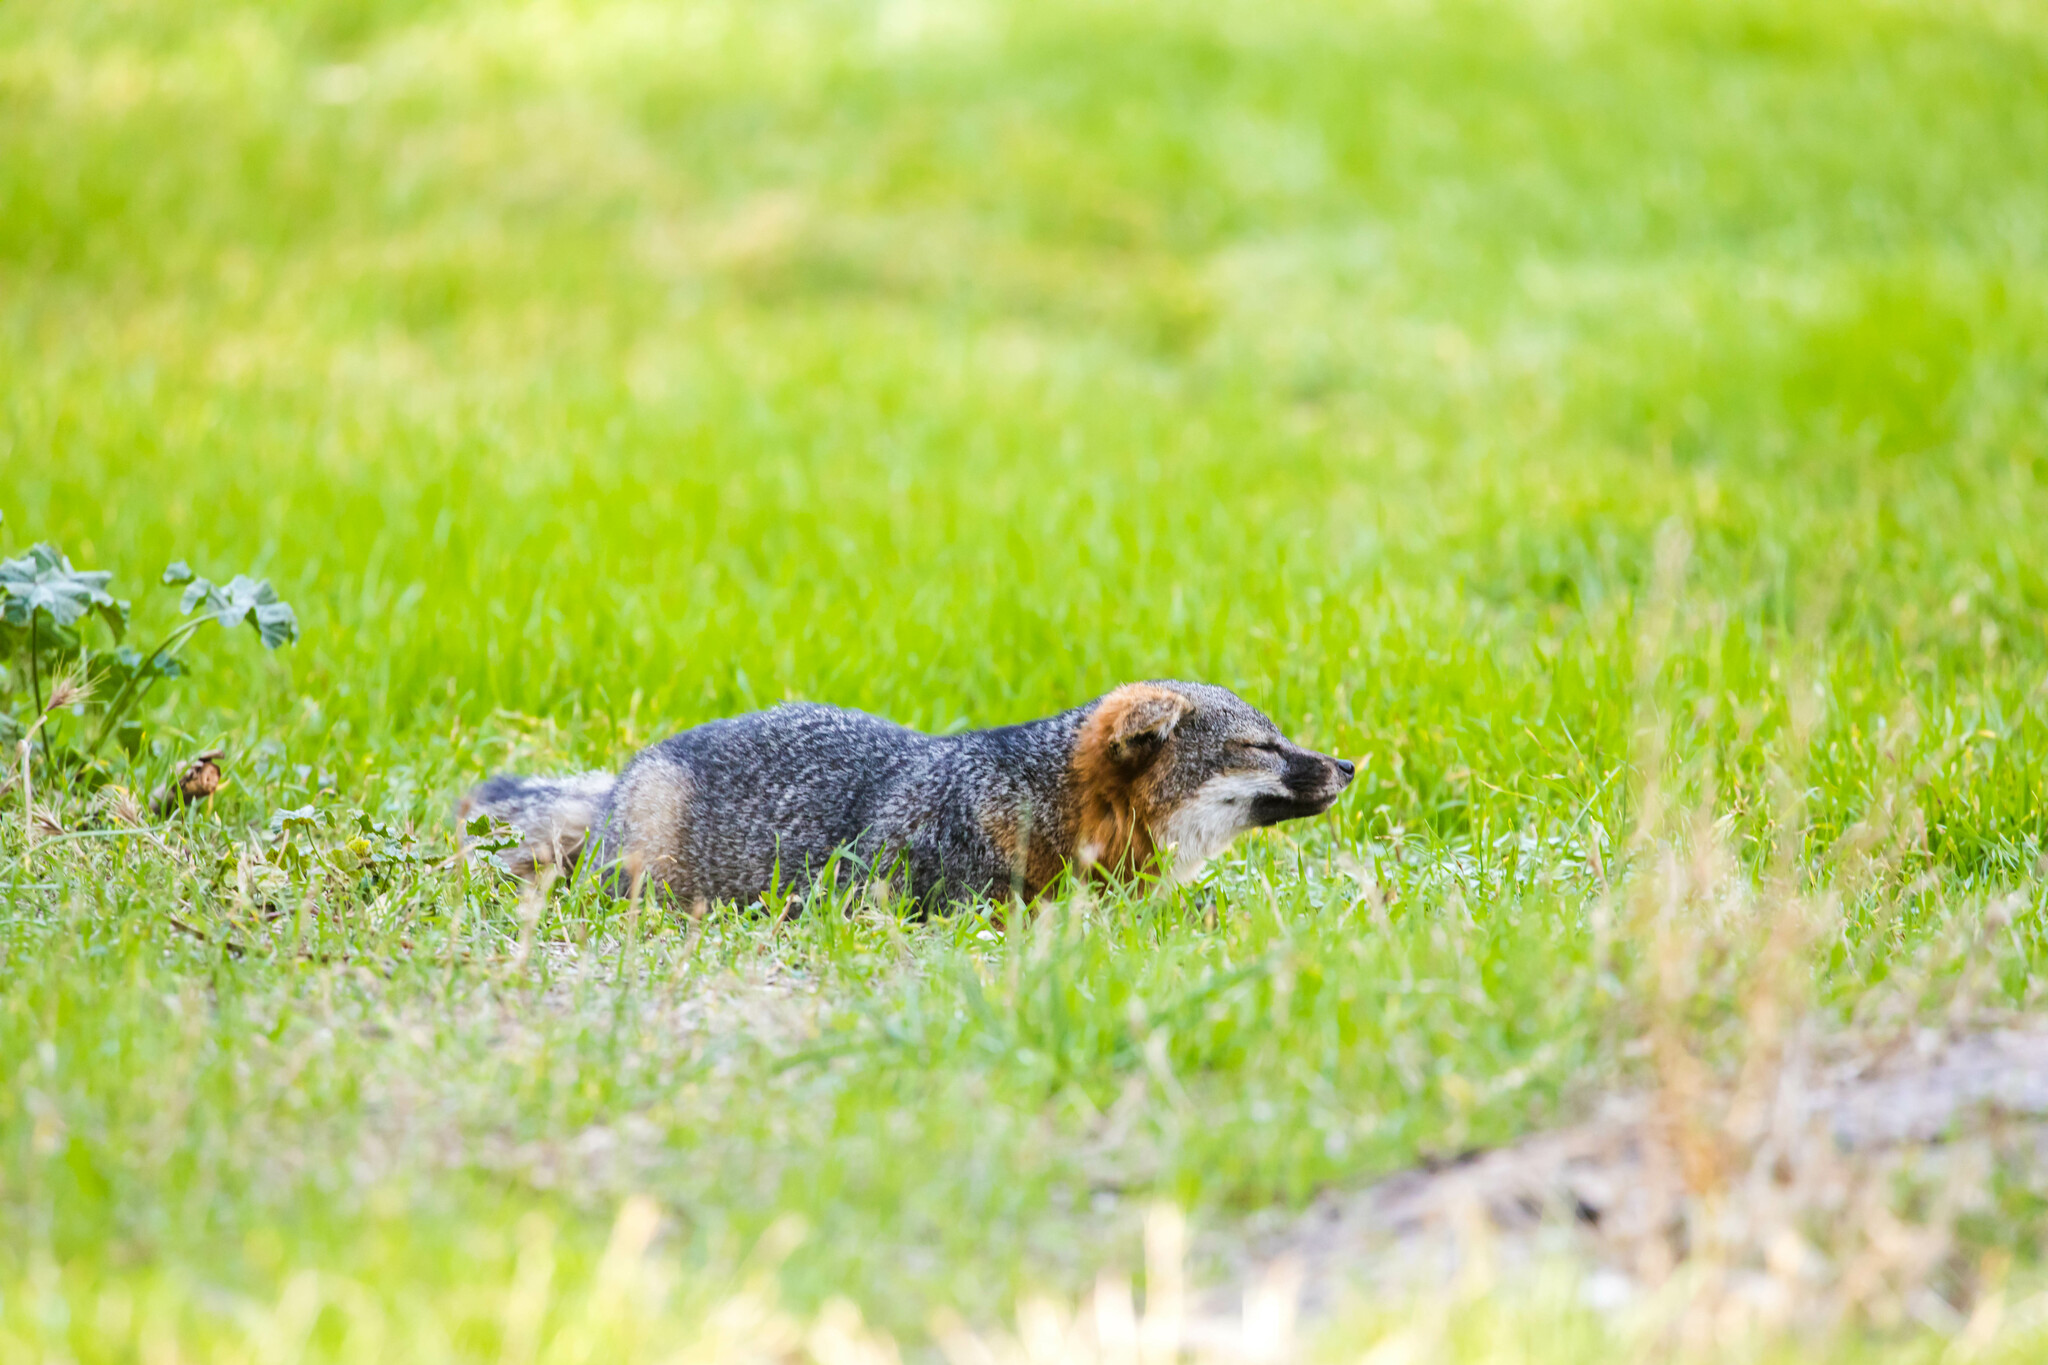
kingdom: Animalia
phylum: Chordata
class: Mammalia
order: Carnivora
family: Canidae
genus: Urocyon
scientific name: Urocyon littoralis
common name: Island gray fox
